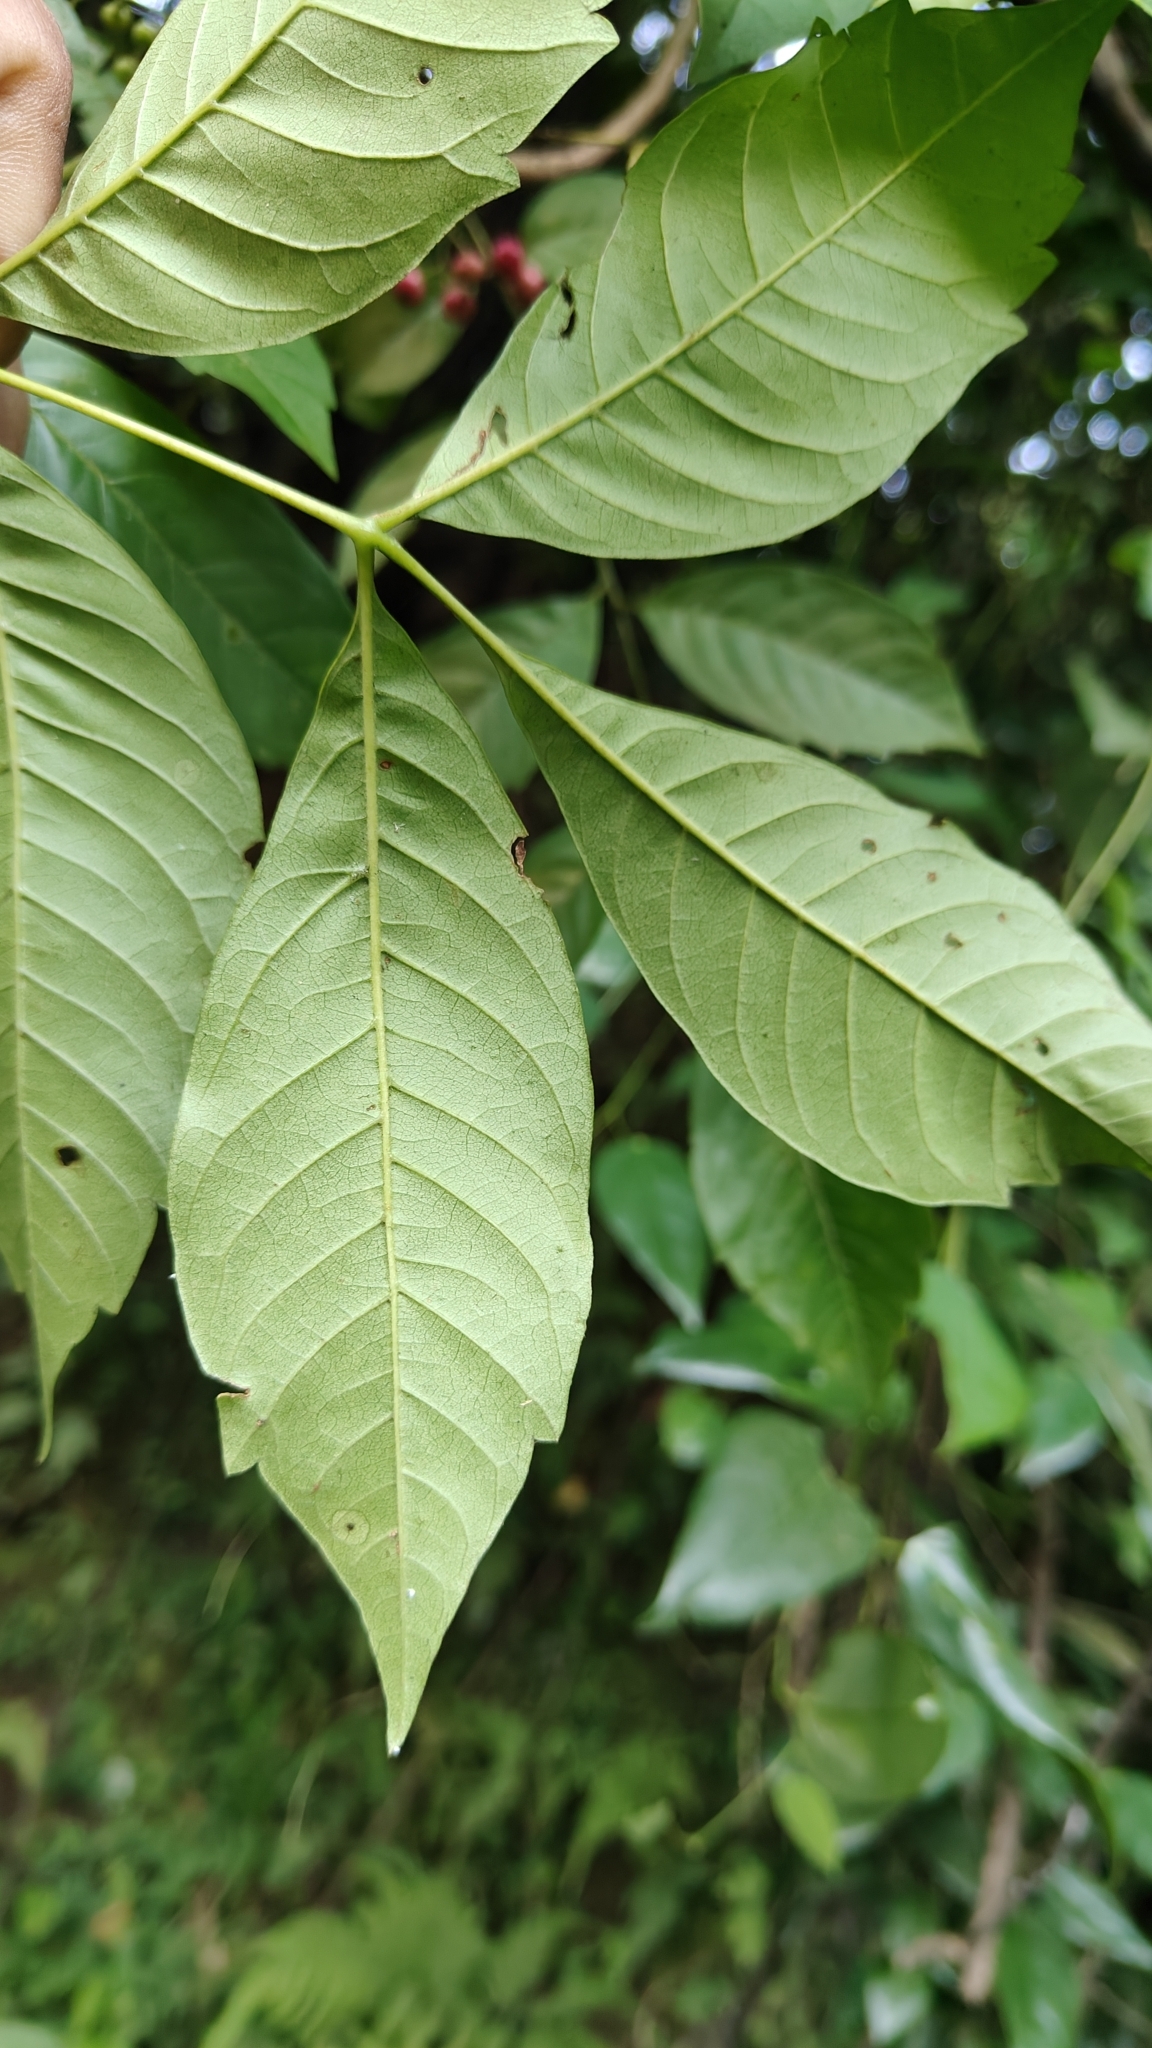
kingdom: Plantae
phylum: Tracheophyta
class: Magnoliopsida
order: Sapindales
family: Meliaceae
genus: Cipadessa
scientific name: Cipadessa baccifera
